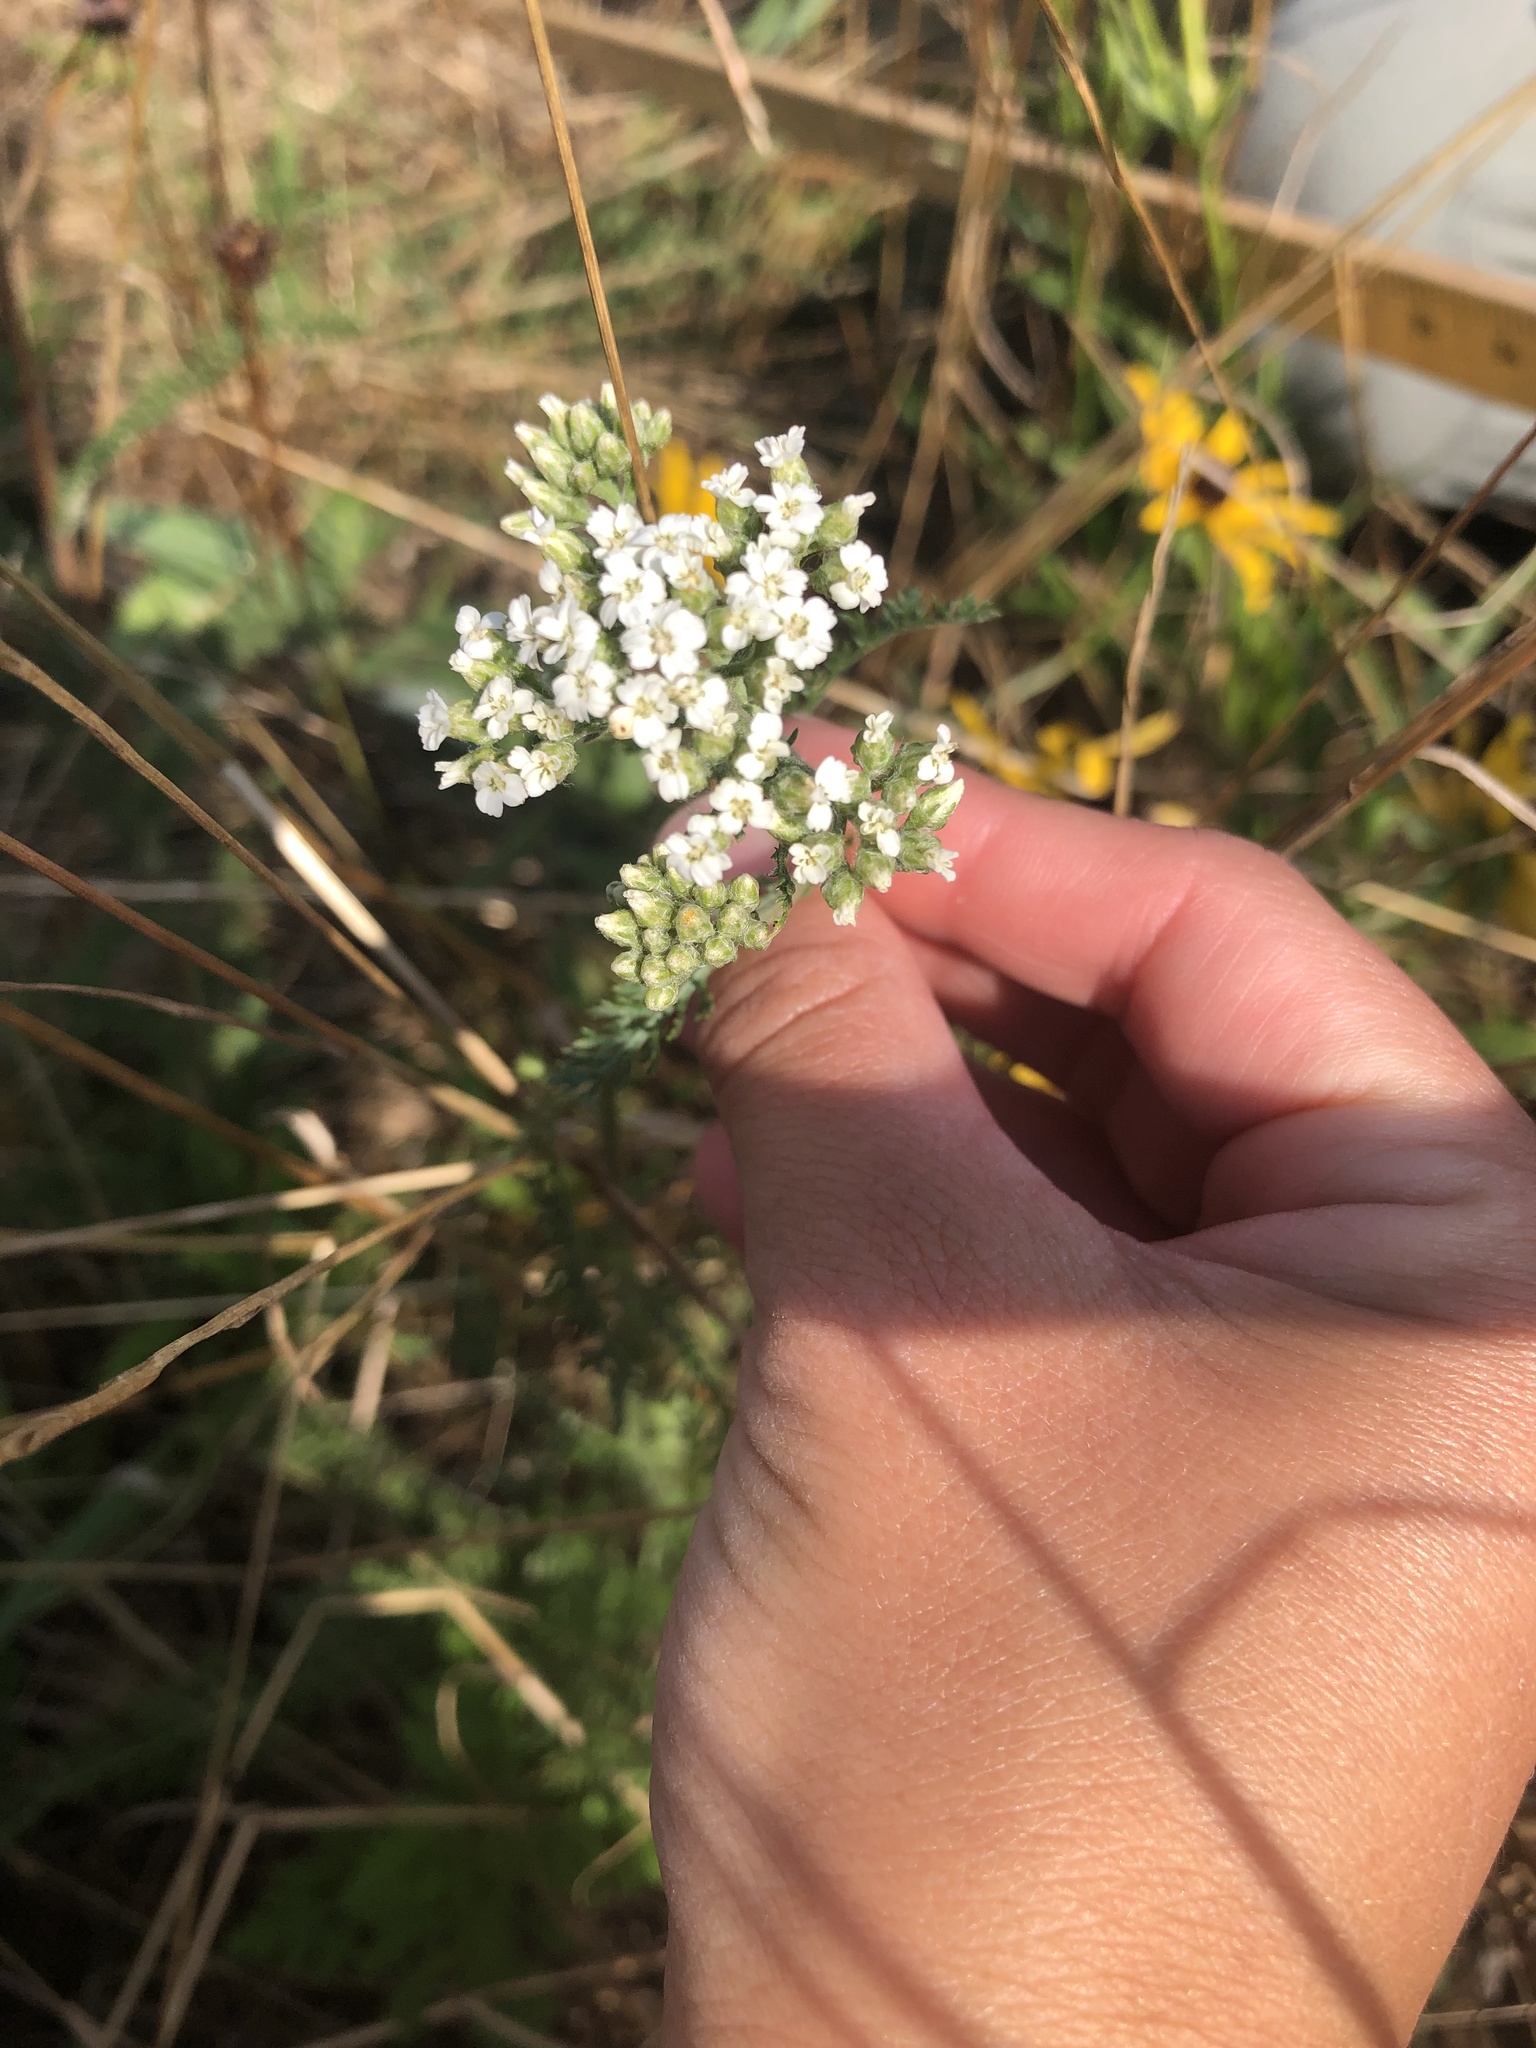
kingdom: Plantae
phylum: Tracheophyta
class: Magnoliopsida
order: Asterales
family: Asteraceae
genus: Achillea
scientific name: Achillea millefolium
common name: Yarrow
